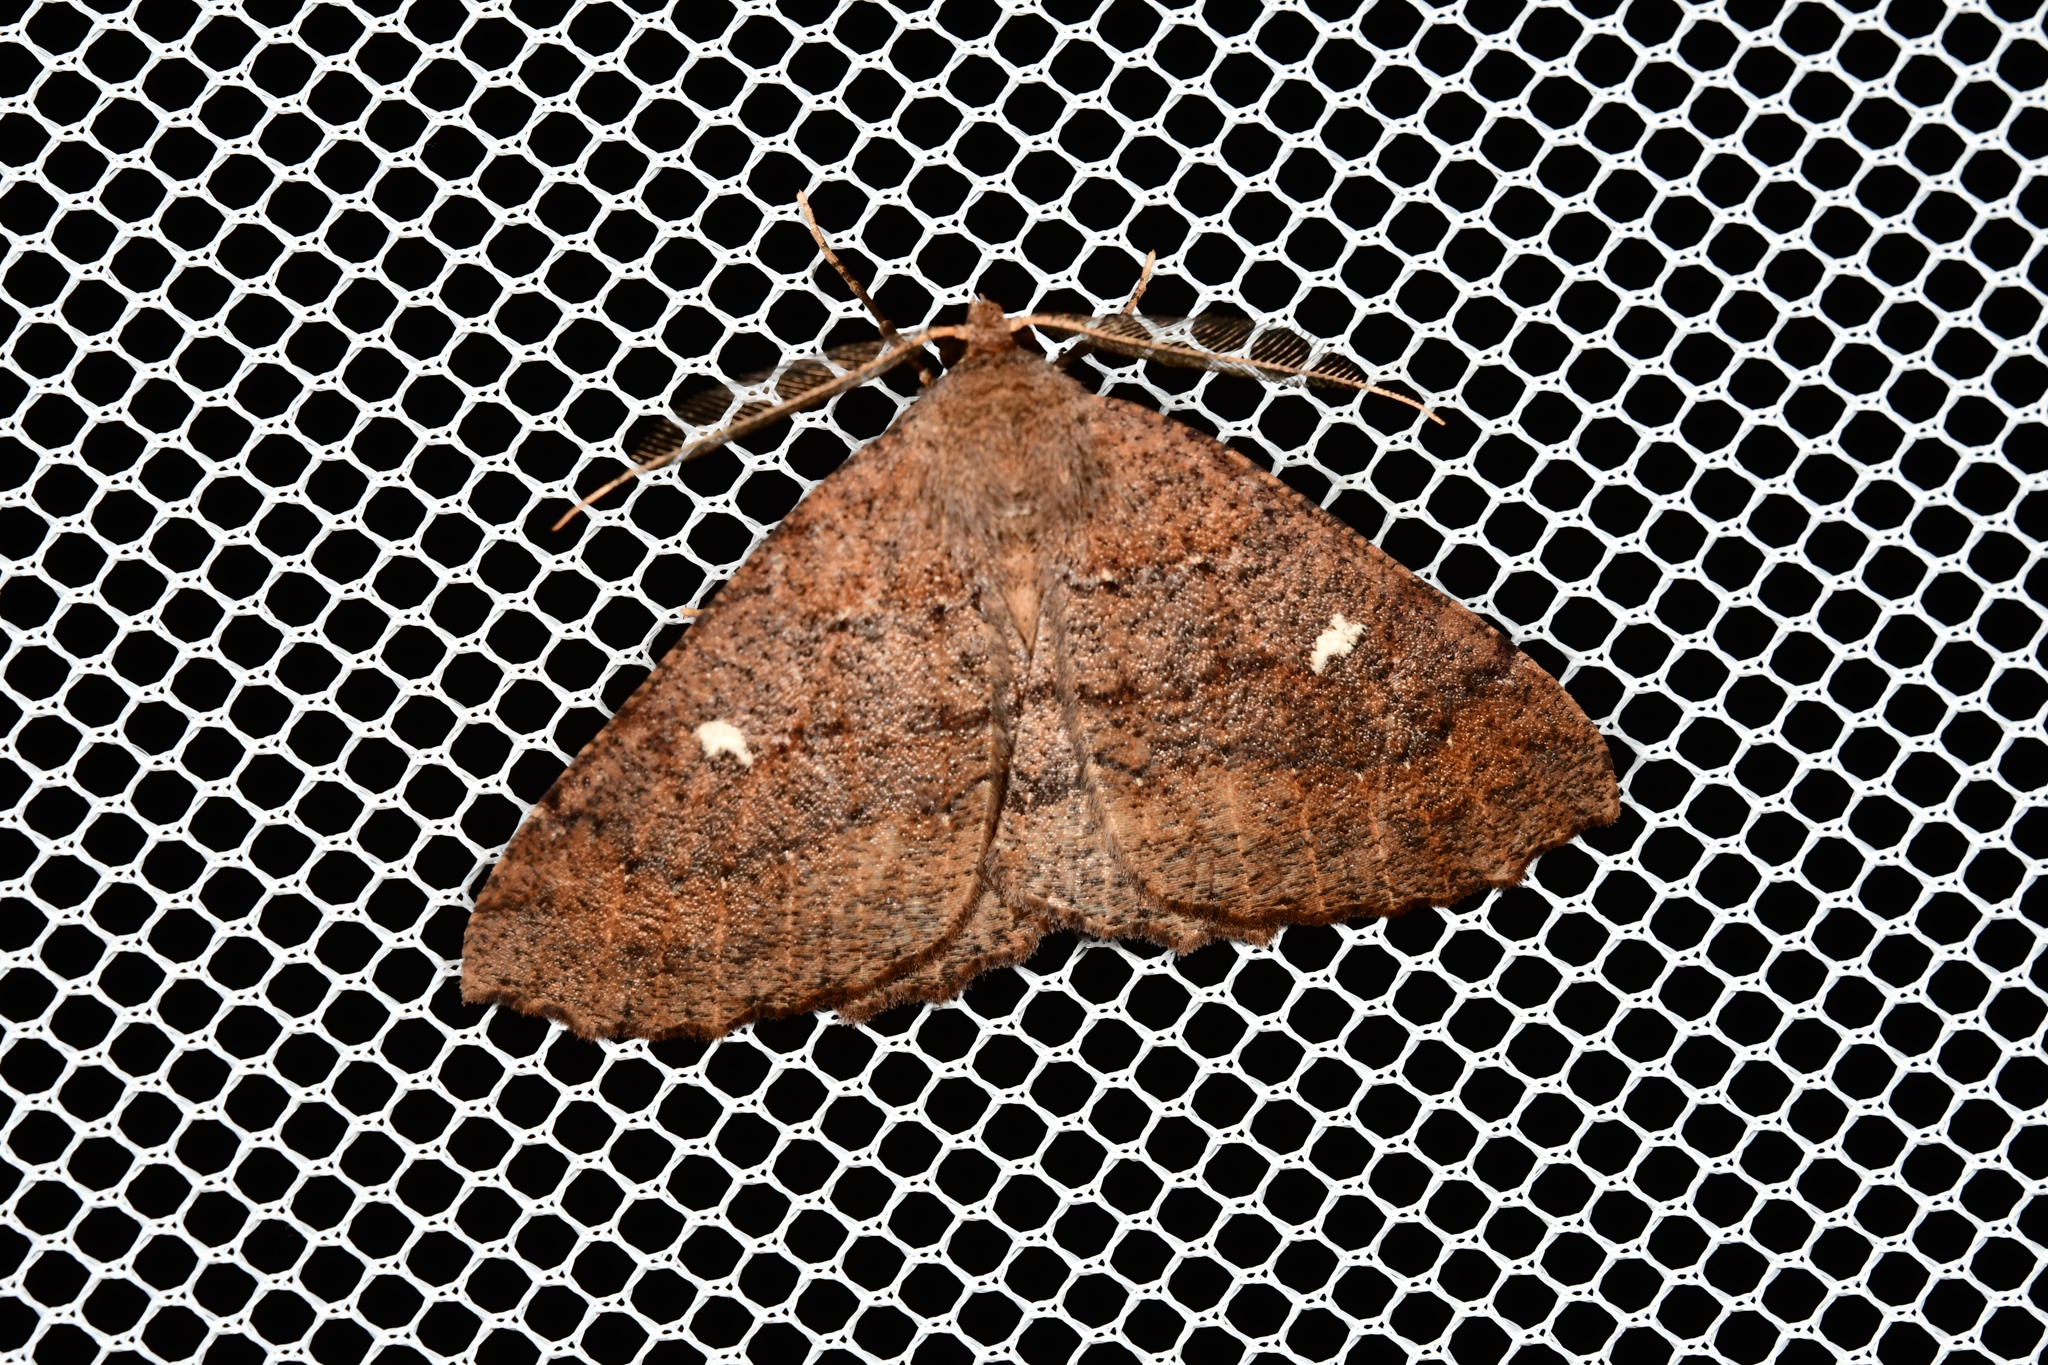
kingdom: Animalia
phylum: Arthropoda
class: Insecta
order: Lepidoptera
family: Geometridae
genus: Cleora
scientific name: Cleora scriptaria
